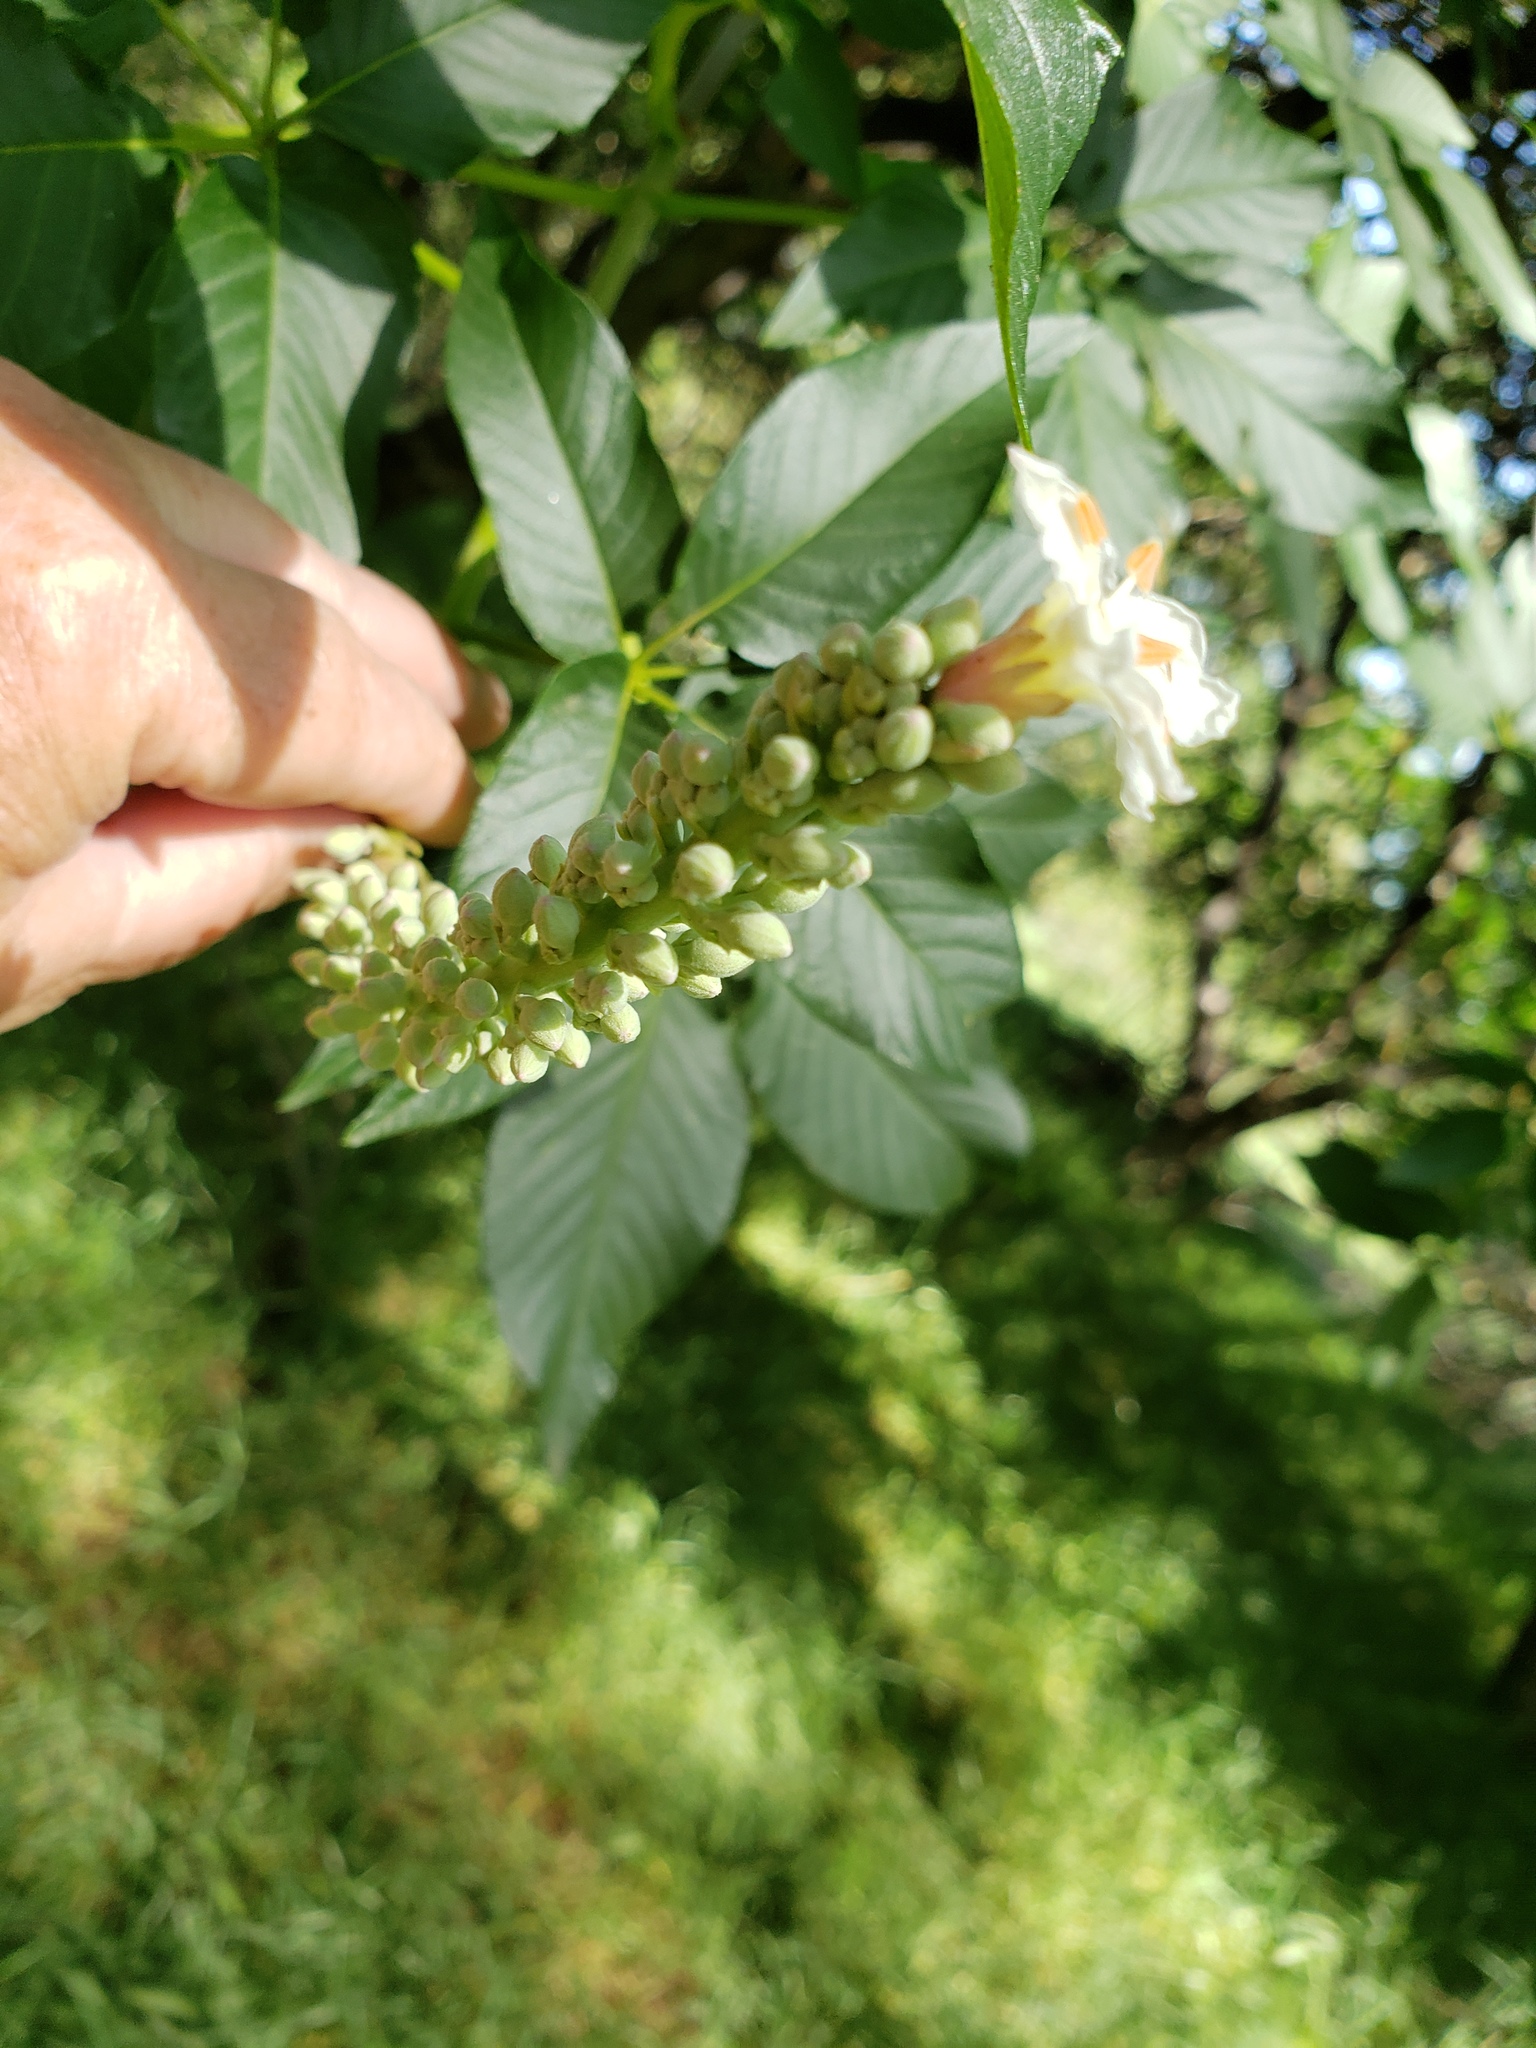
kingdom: Plantae
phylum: Tracheophyta
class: Magnoliopsida
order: Sapindales
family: Sapindaceae
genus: Aesculus
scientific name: Aesculus californica
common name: California buckeye
